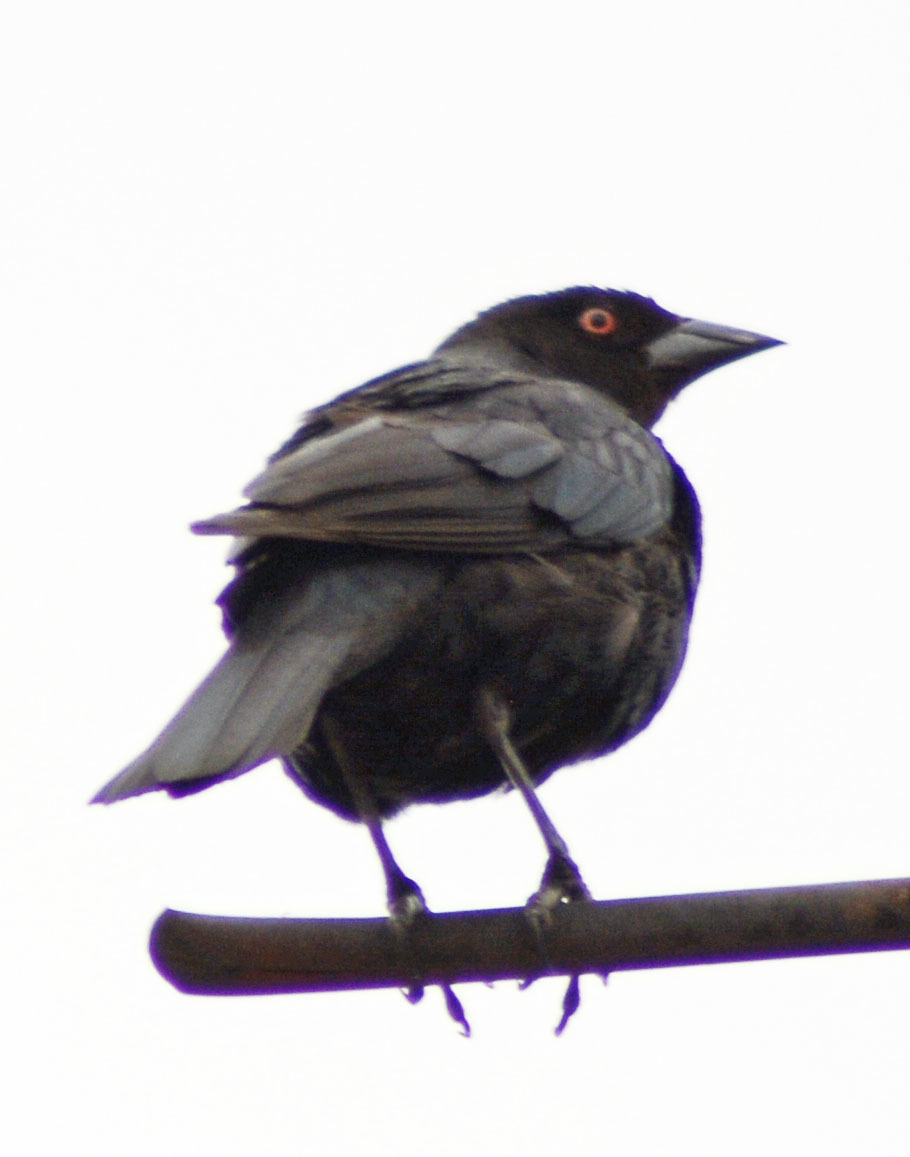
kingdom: Animalia
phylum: Chordata
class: Aves
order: Passeriformes
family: Icteridae
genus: Molothrus
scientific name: Molothrus aeneus
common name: Bronzed cowbird
